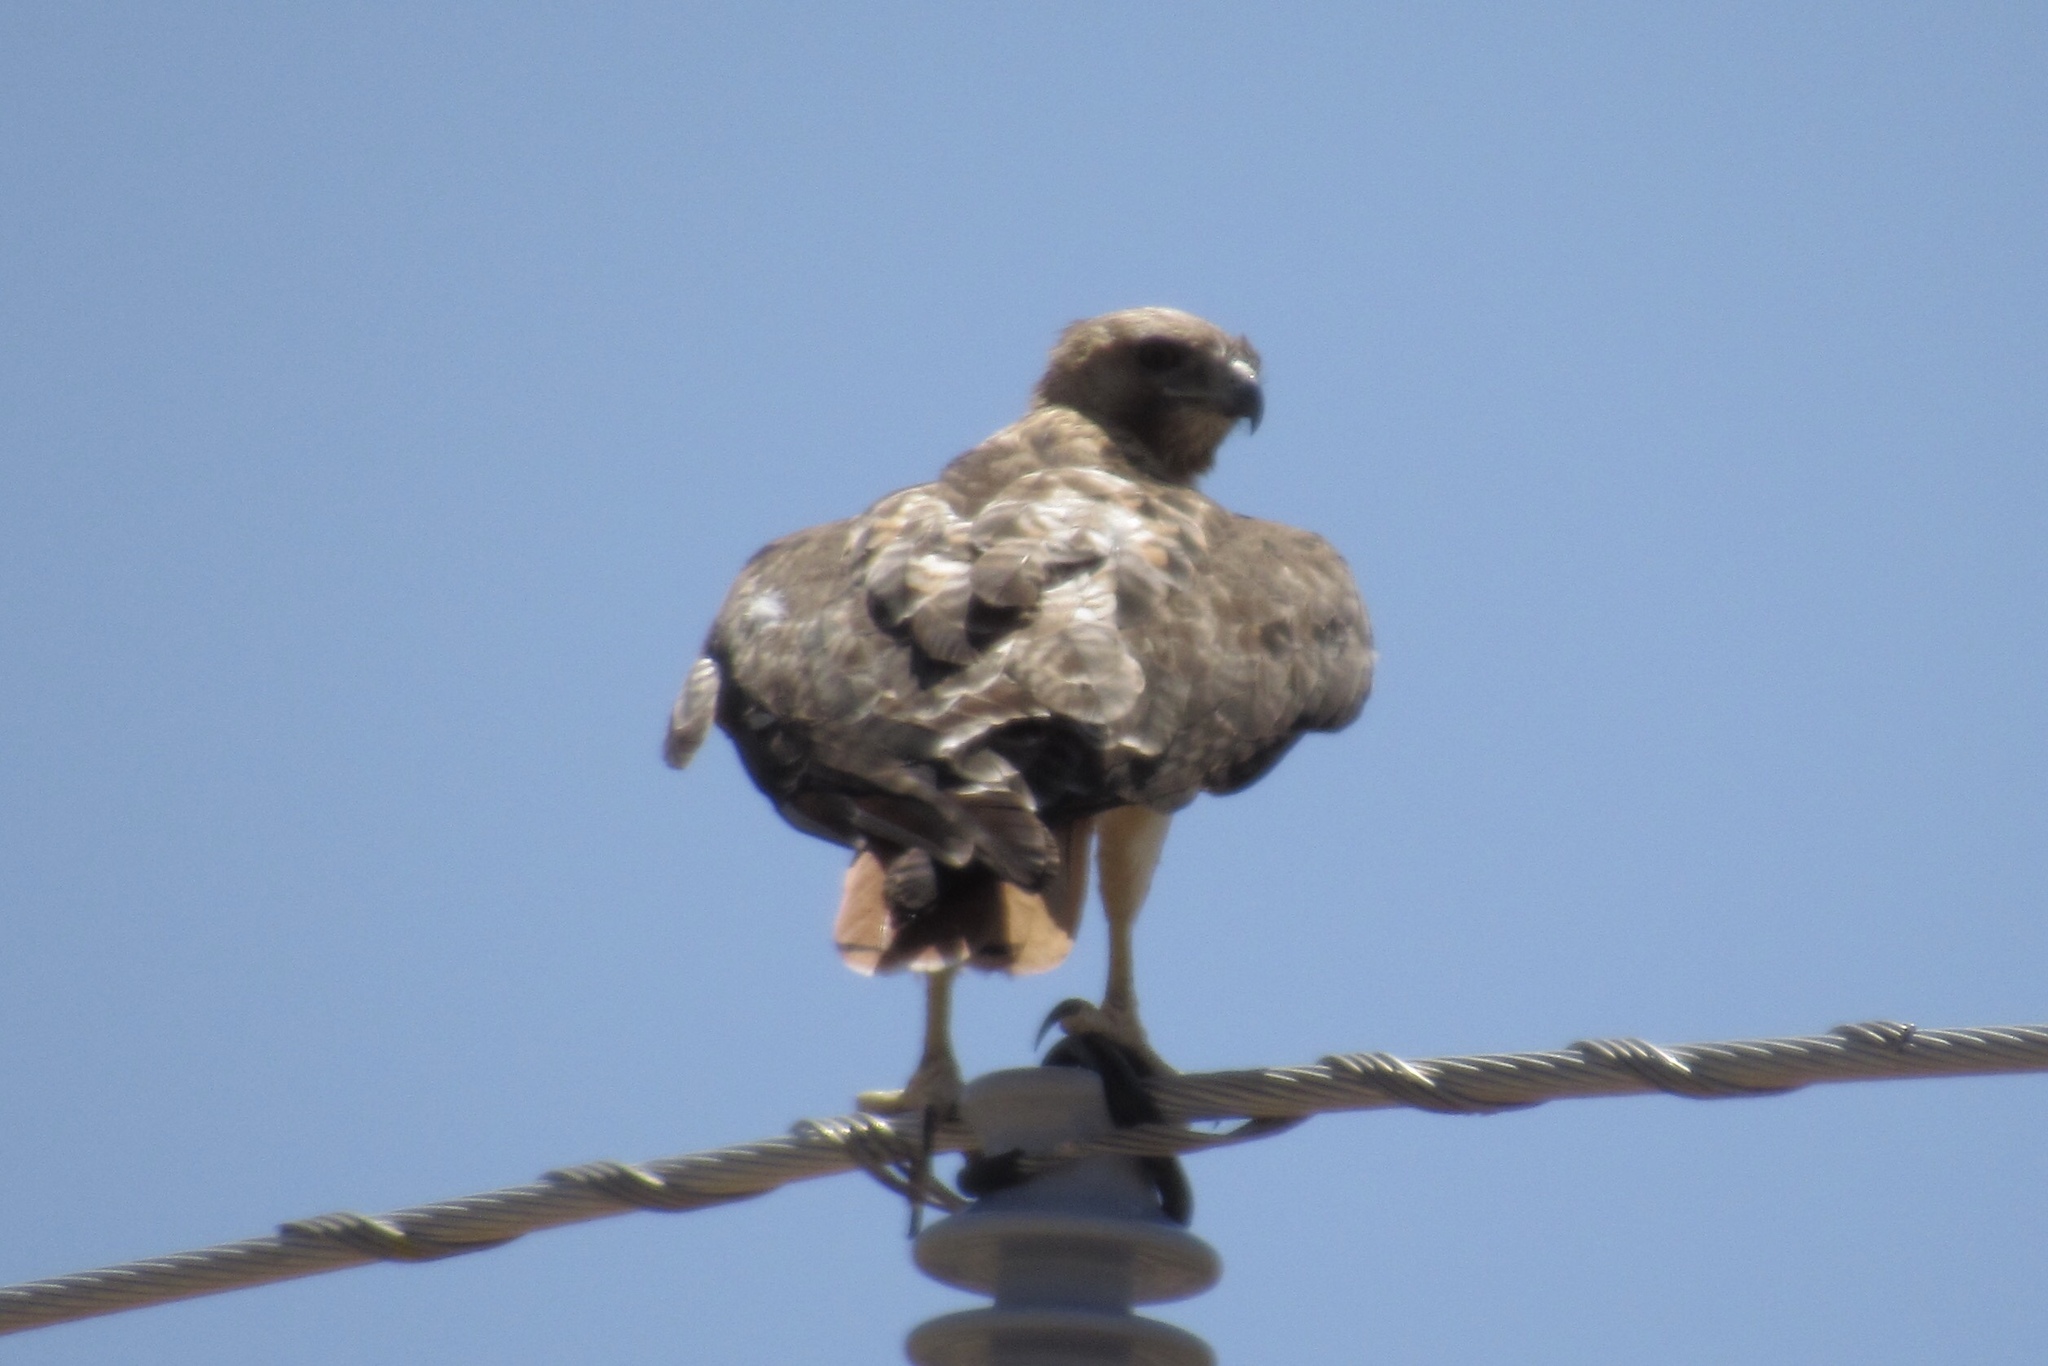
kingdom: Animalia
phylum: Chordata
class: Aves
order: Accipitriformes
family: Accipitridae
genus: Buteo
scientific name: Buteo jamaicensis
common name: Red-tailed hawk
